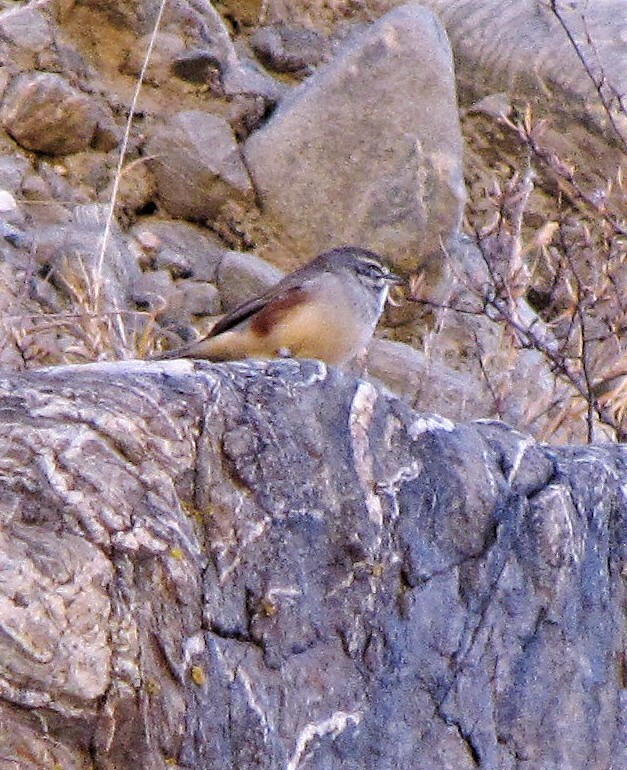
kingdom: Animalia
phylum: Chordata
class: Aves
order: Passeriformes
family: Thraupidae
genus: Poospizopsis
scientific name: Poospizopsis hypocondria
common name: Rufous-sided warbling-finch
